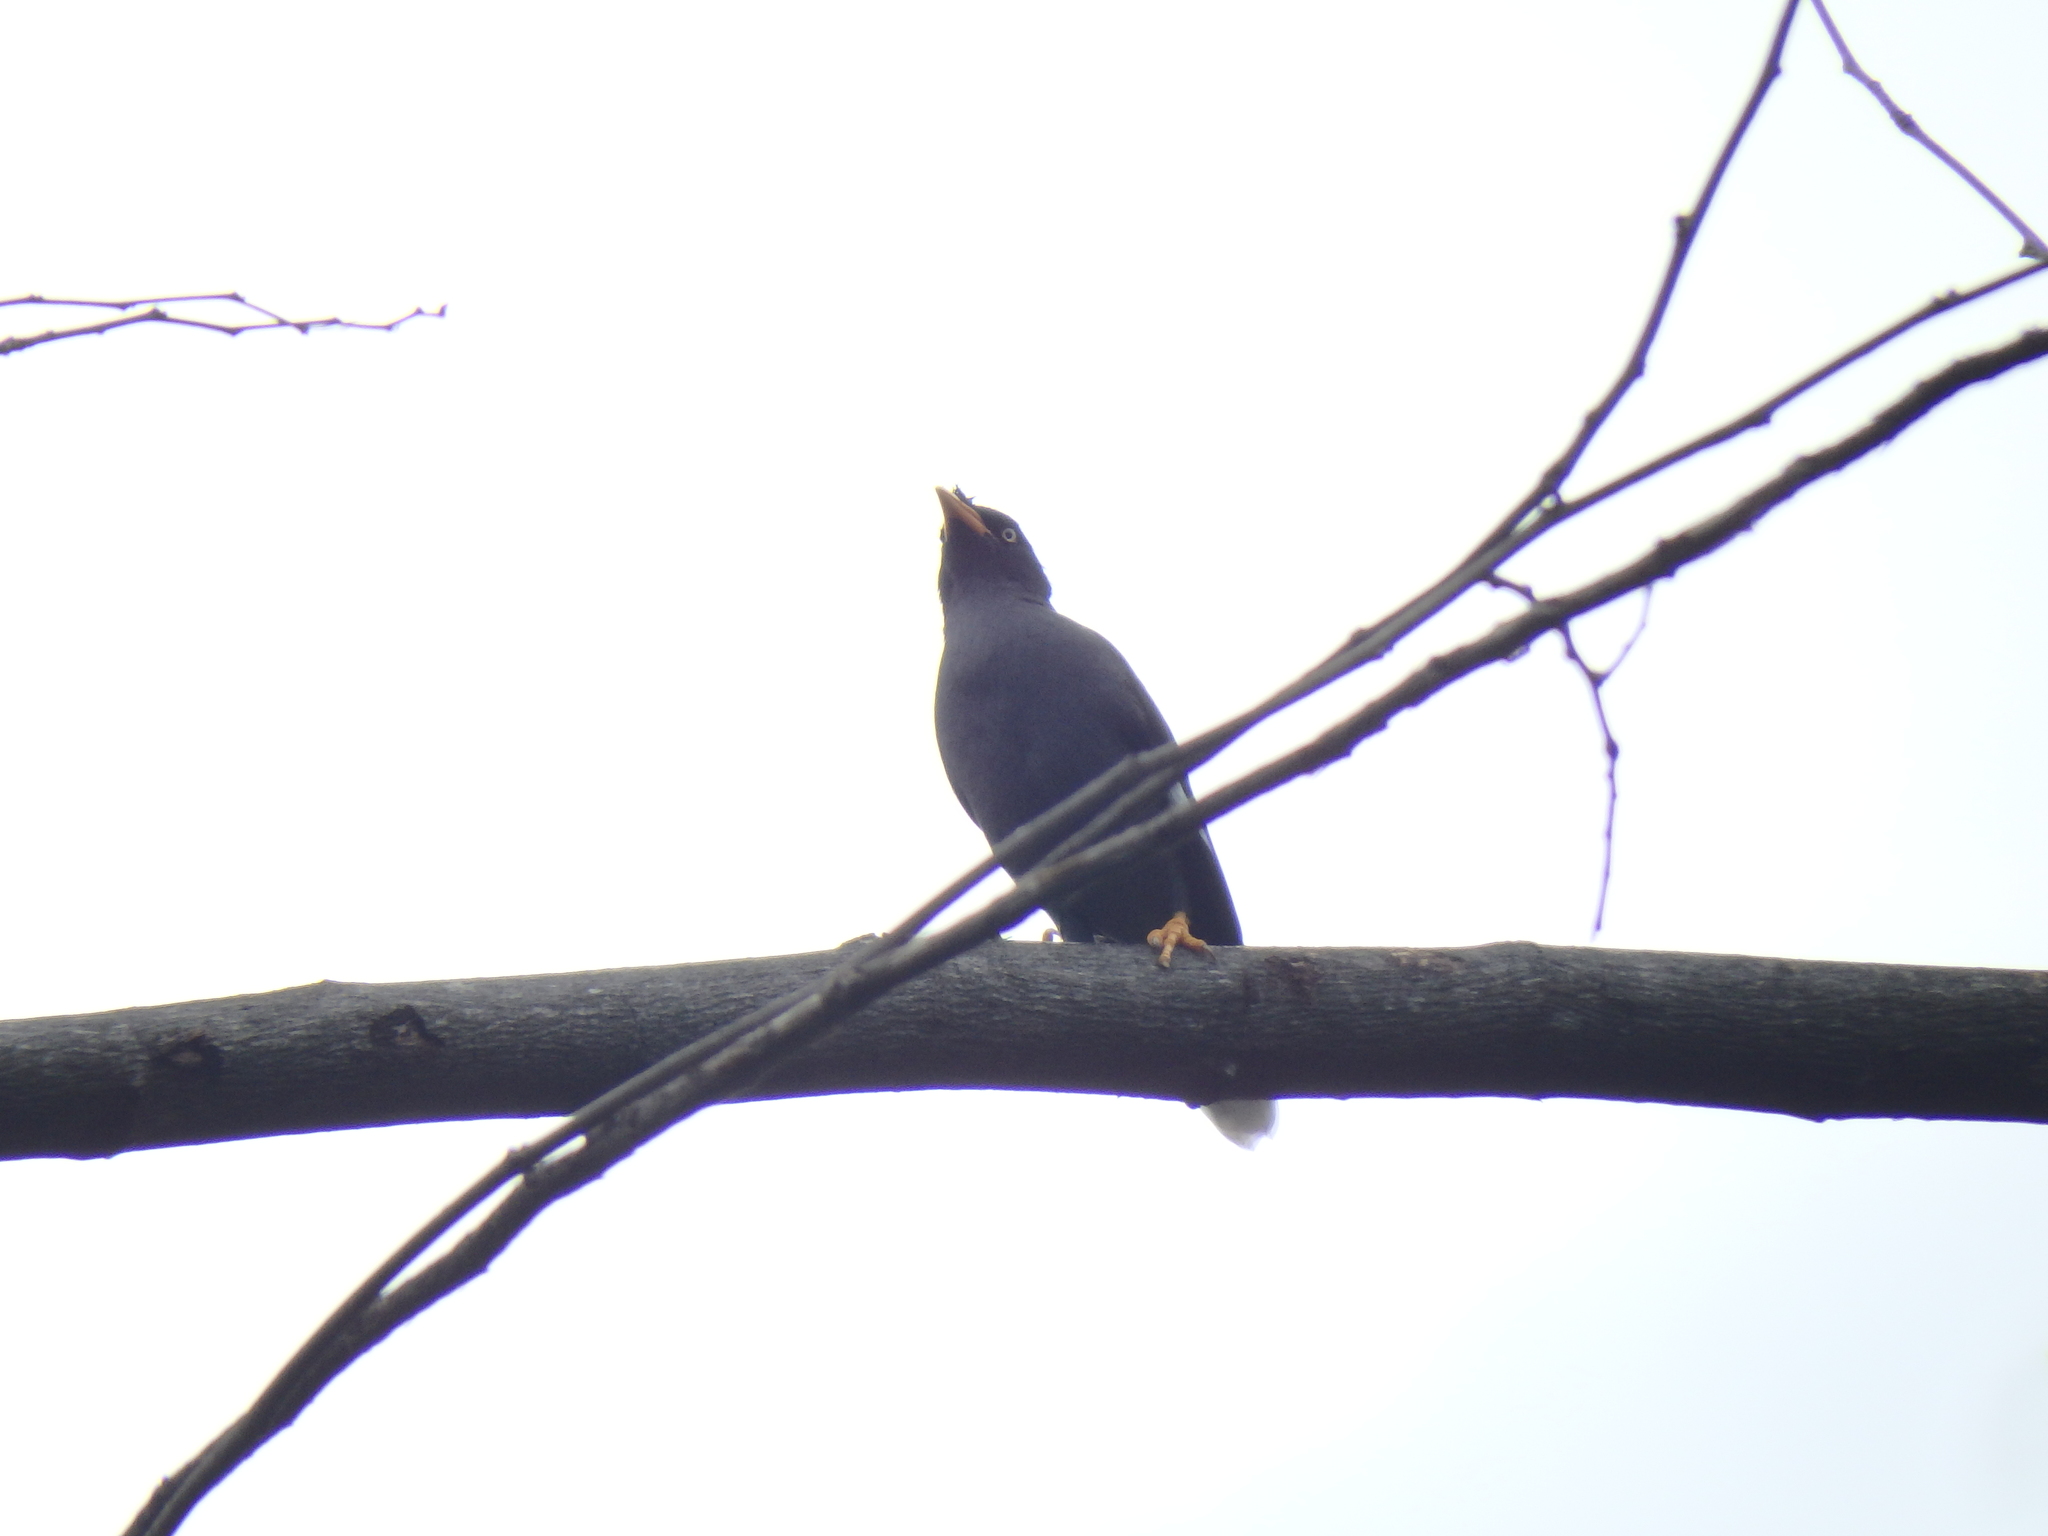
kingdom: Animalia
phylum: Chordata
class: Aves
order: Passeriformes
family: Sturnidae
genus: Acridotheres
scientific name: Acridotheres javanicus
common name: Javan myna
